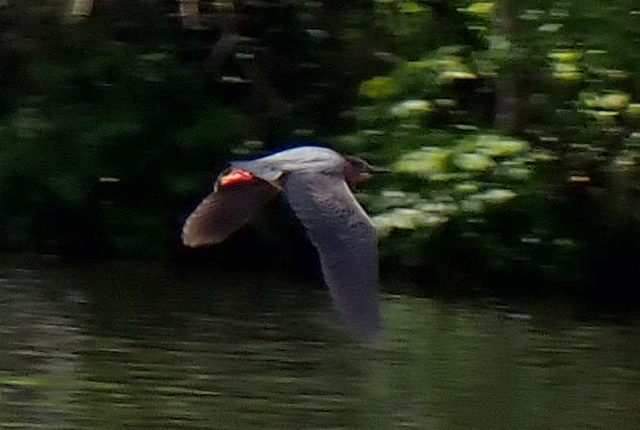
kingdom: Animalia
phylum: Chordata
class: Aves
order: Pelecaniformes
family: Ardeidae
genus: Butorides
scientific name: Butorides virescens
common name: Green heron
